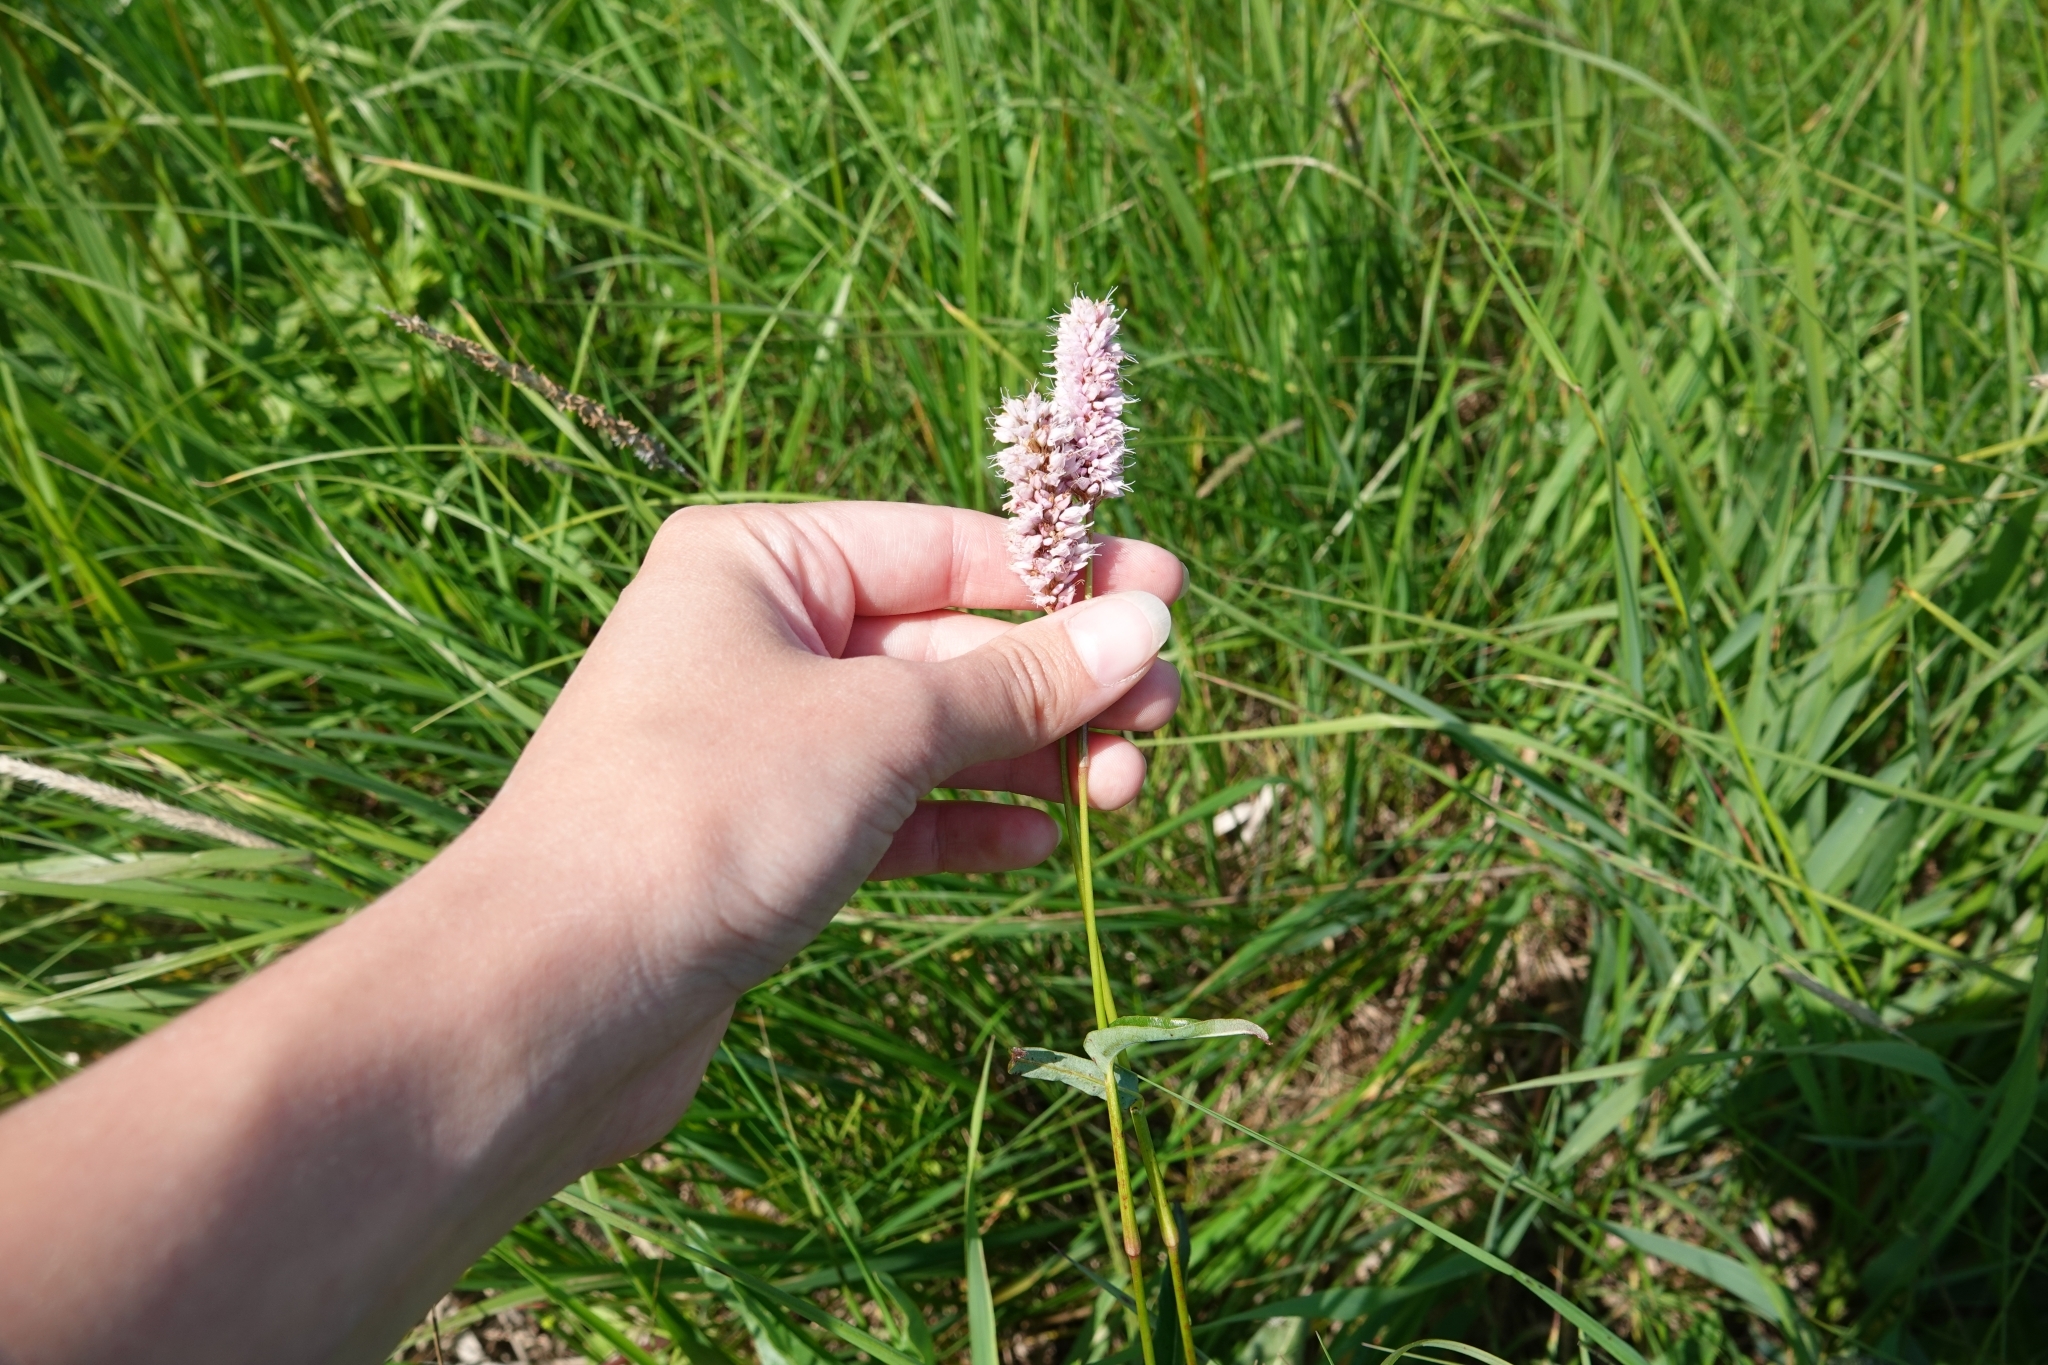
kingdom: Plantae
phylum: Tracheophyta
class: Magnoliopsida
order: Caryophyllales
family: Polygonaceae
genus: Bistorta
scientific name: Bistorta officinalis
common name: Common bistort
